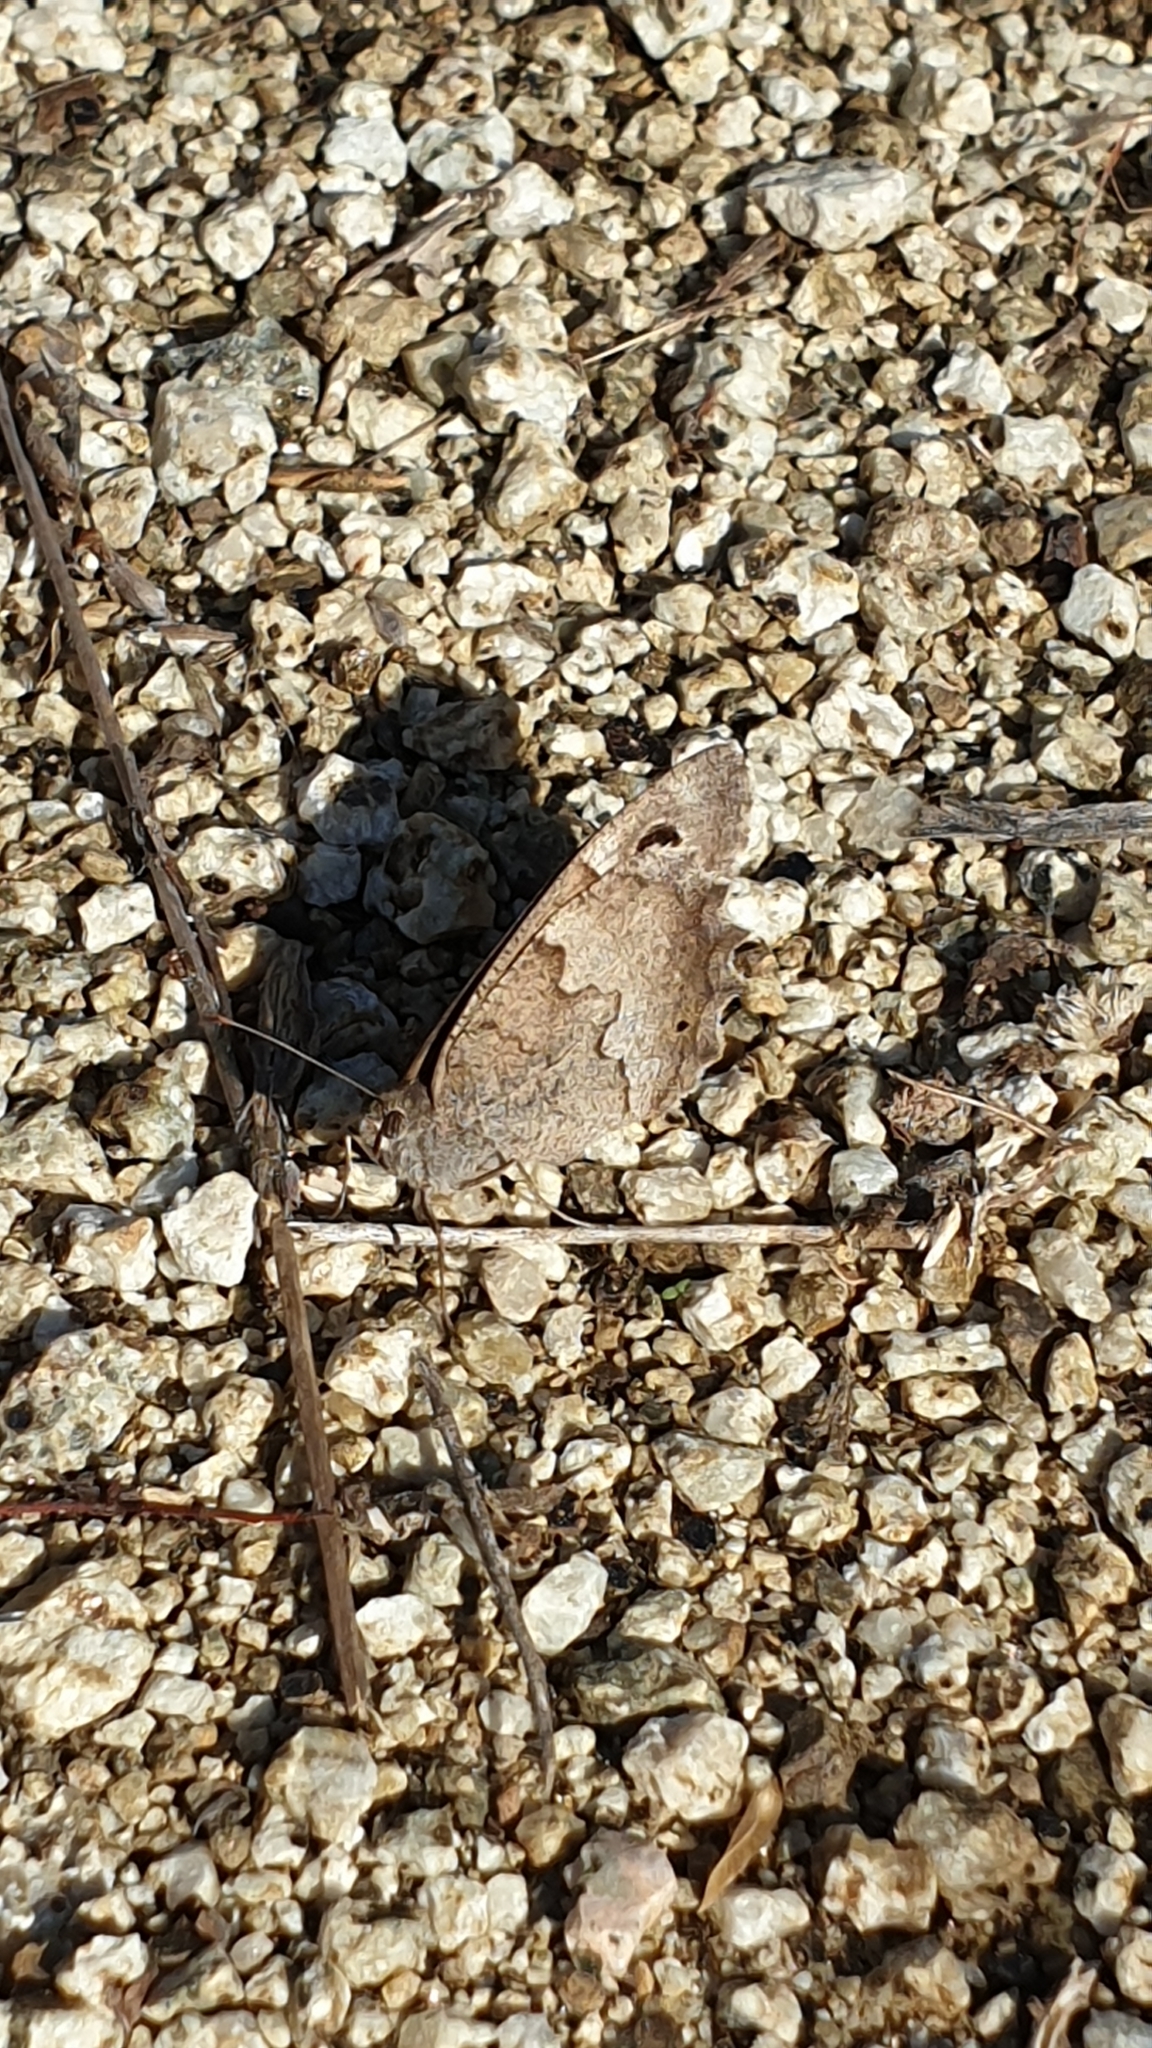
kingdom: Animalia
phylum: Arthropoda
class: Insecta
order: Lepidoptera
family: Nymphalidae
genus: Hipparchia
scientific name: Hipparchia statilinus
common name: Tree grayling
